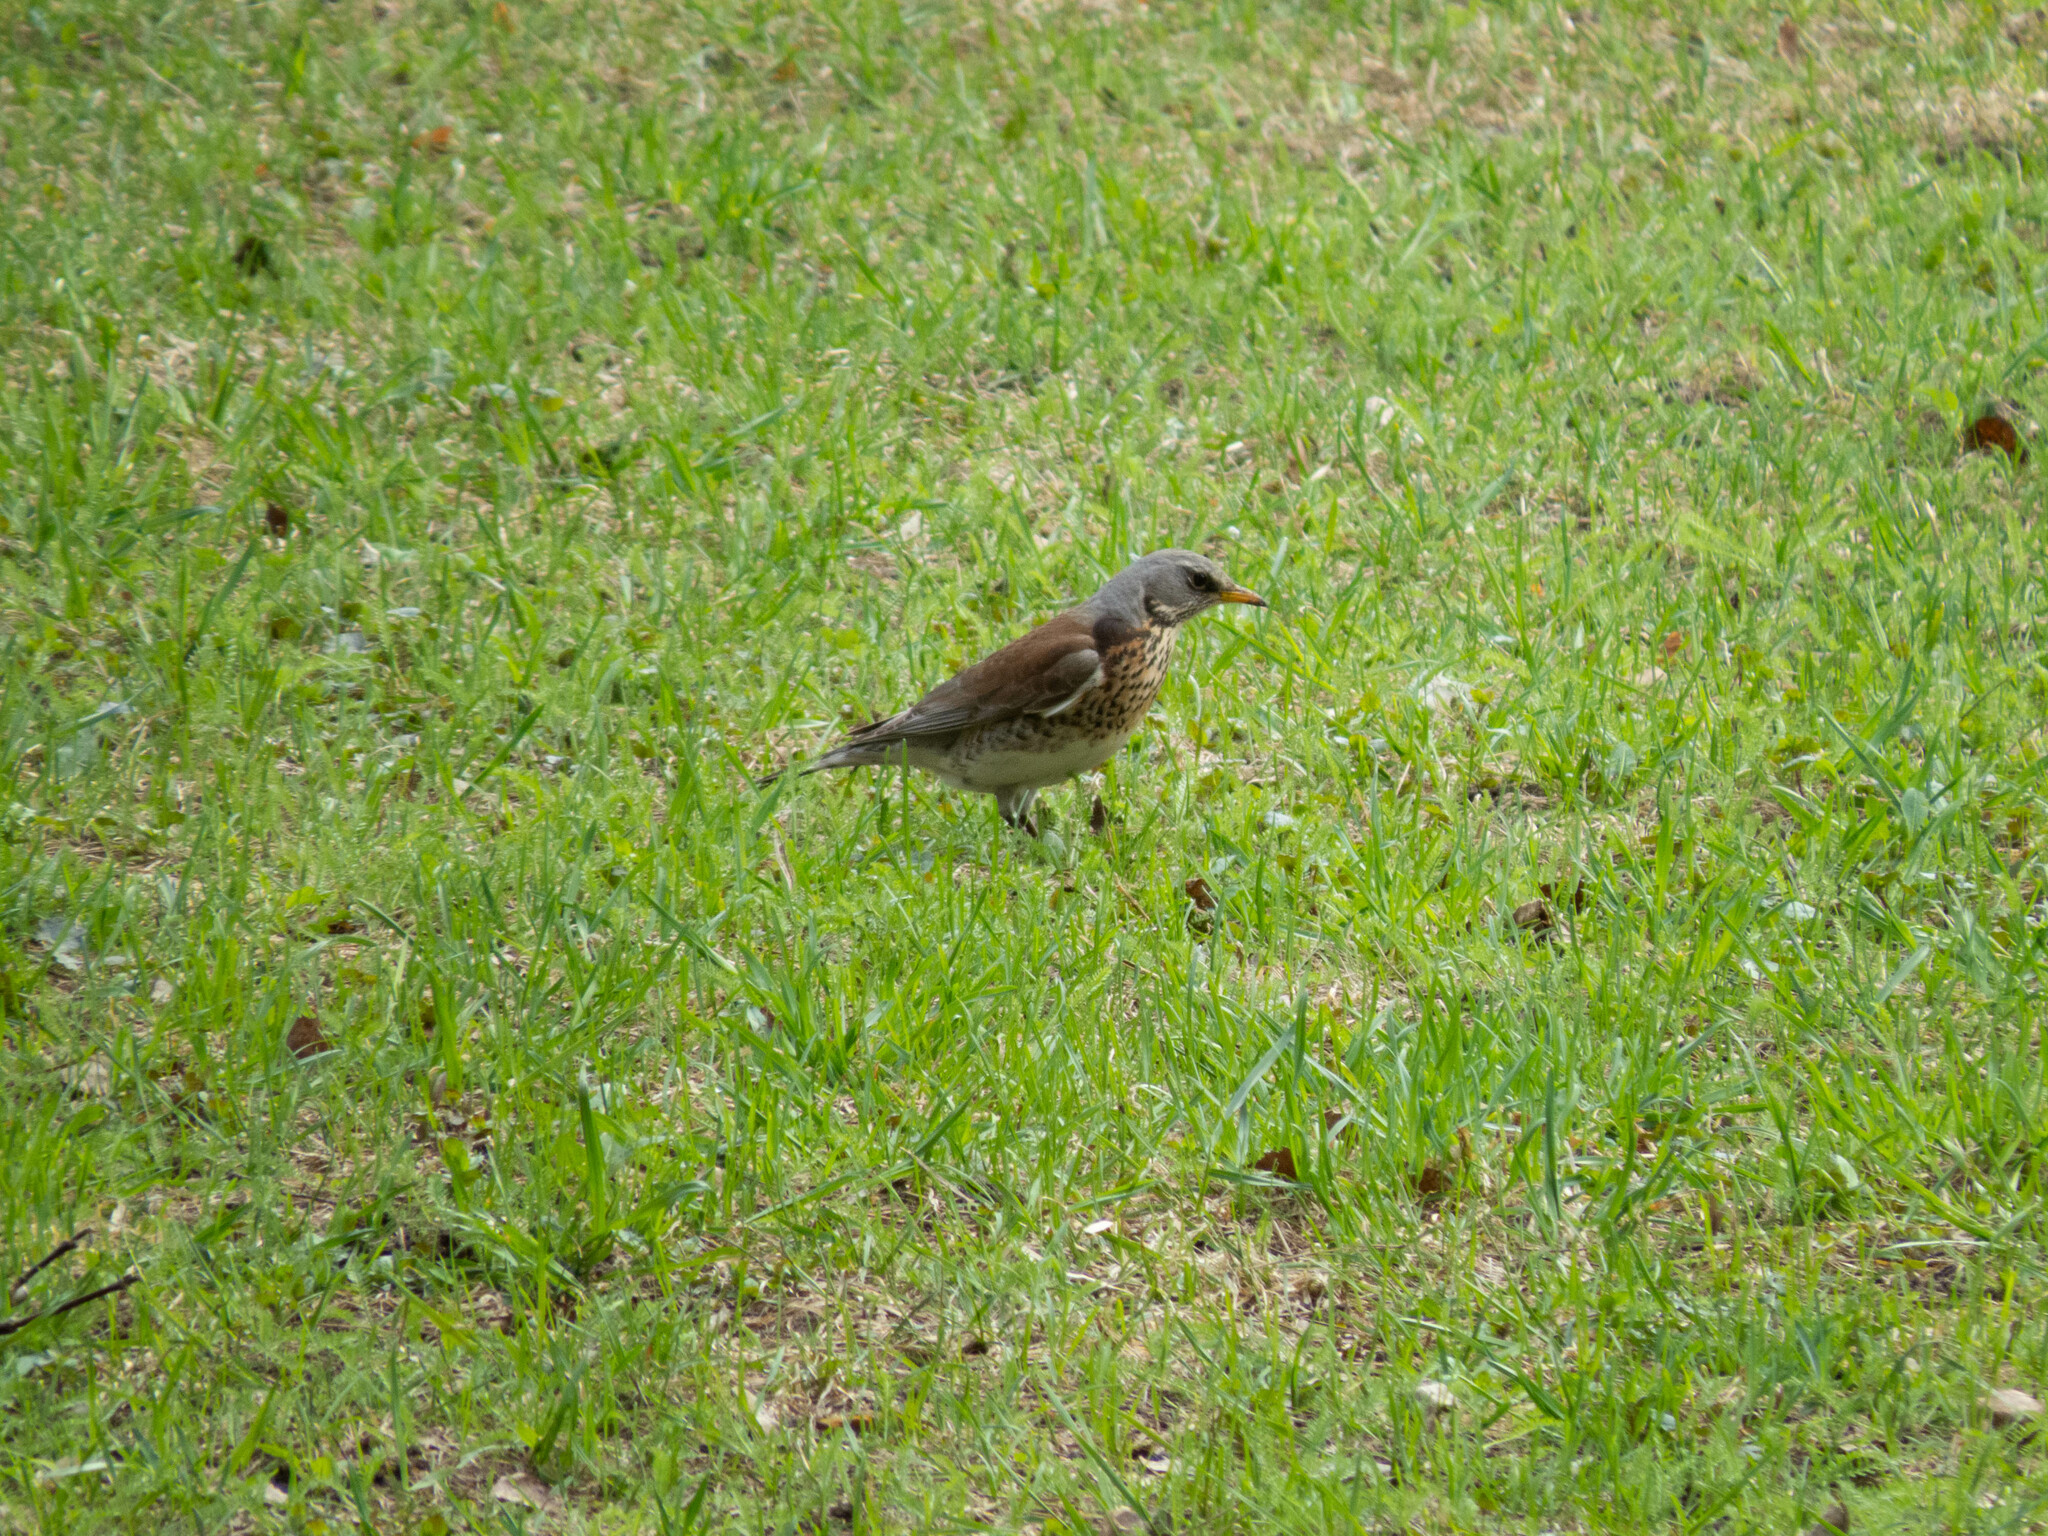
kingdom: Animalia
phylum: Chordata
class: Aves
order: Passeriformes
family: Turdidae
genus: Turdus
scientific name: Turdus pilaris
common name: Fieldfare
